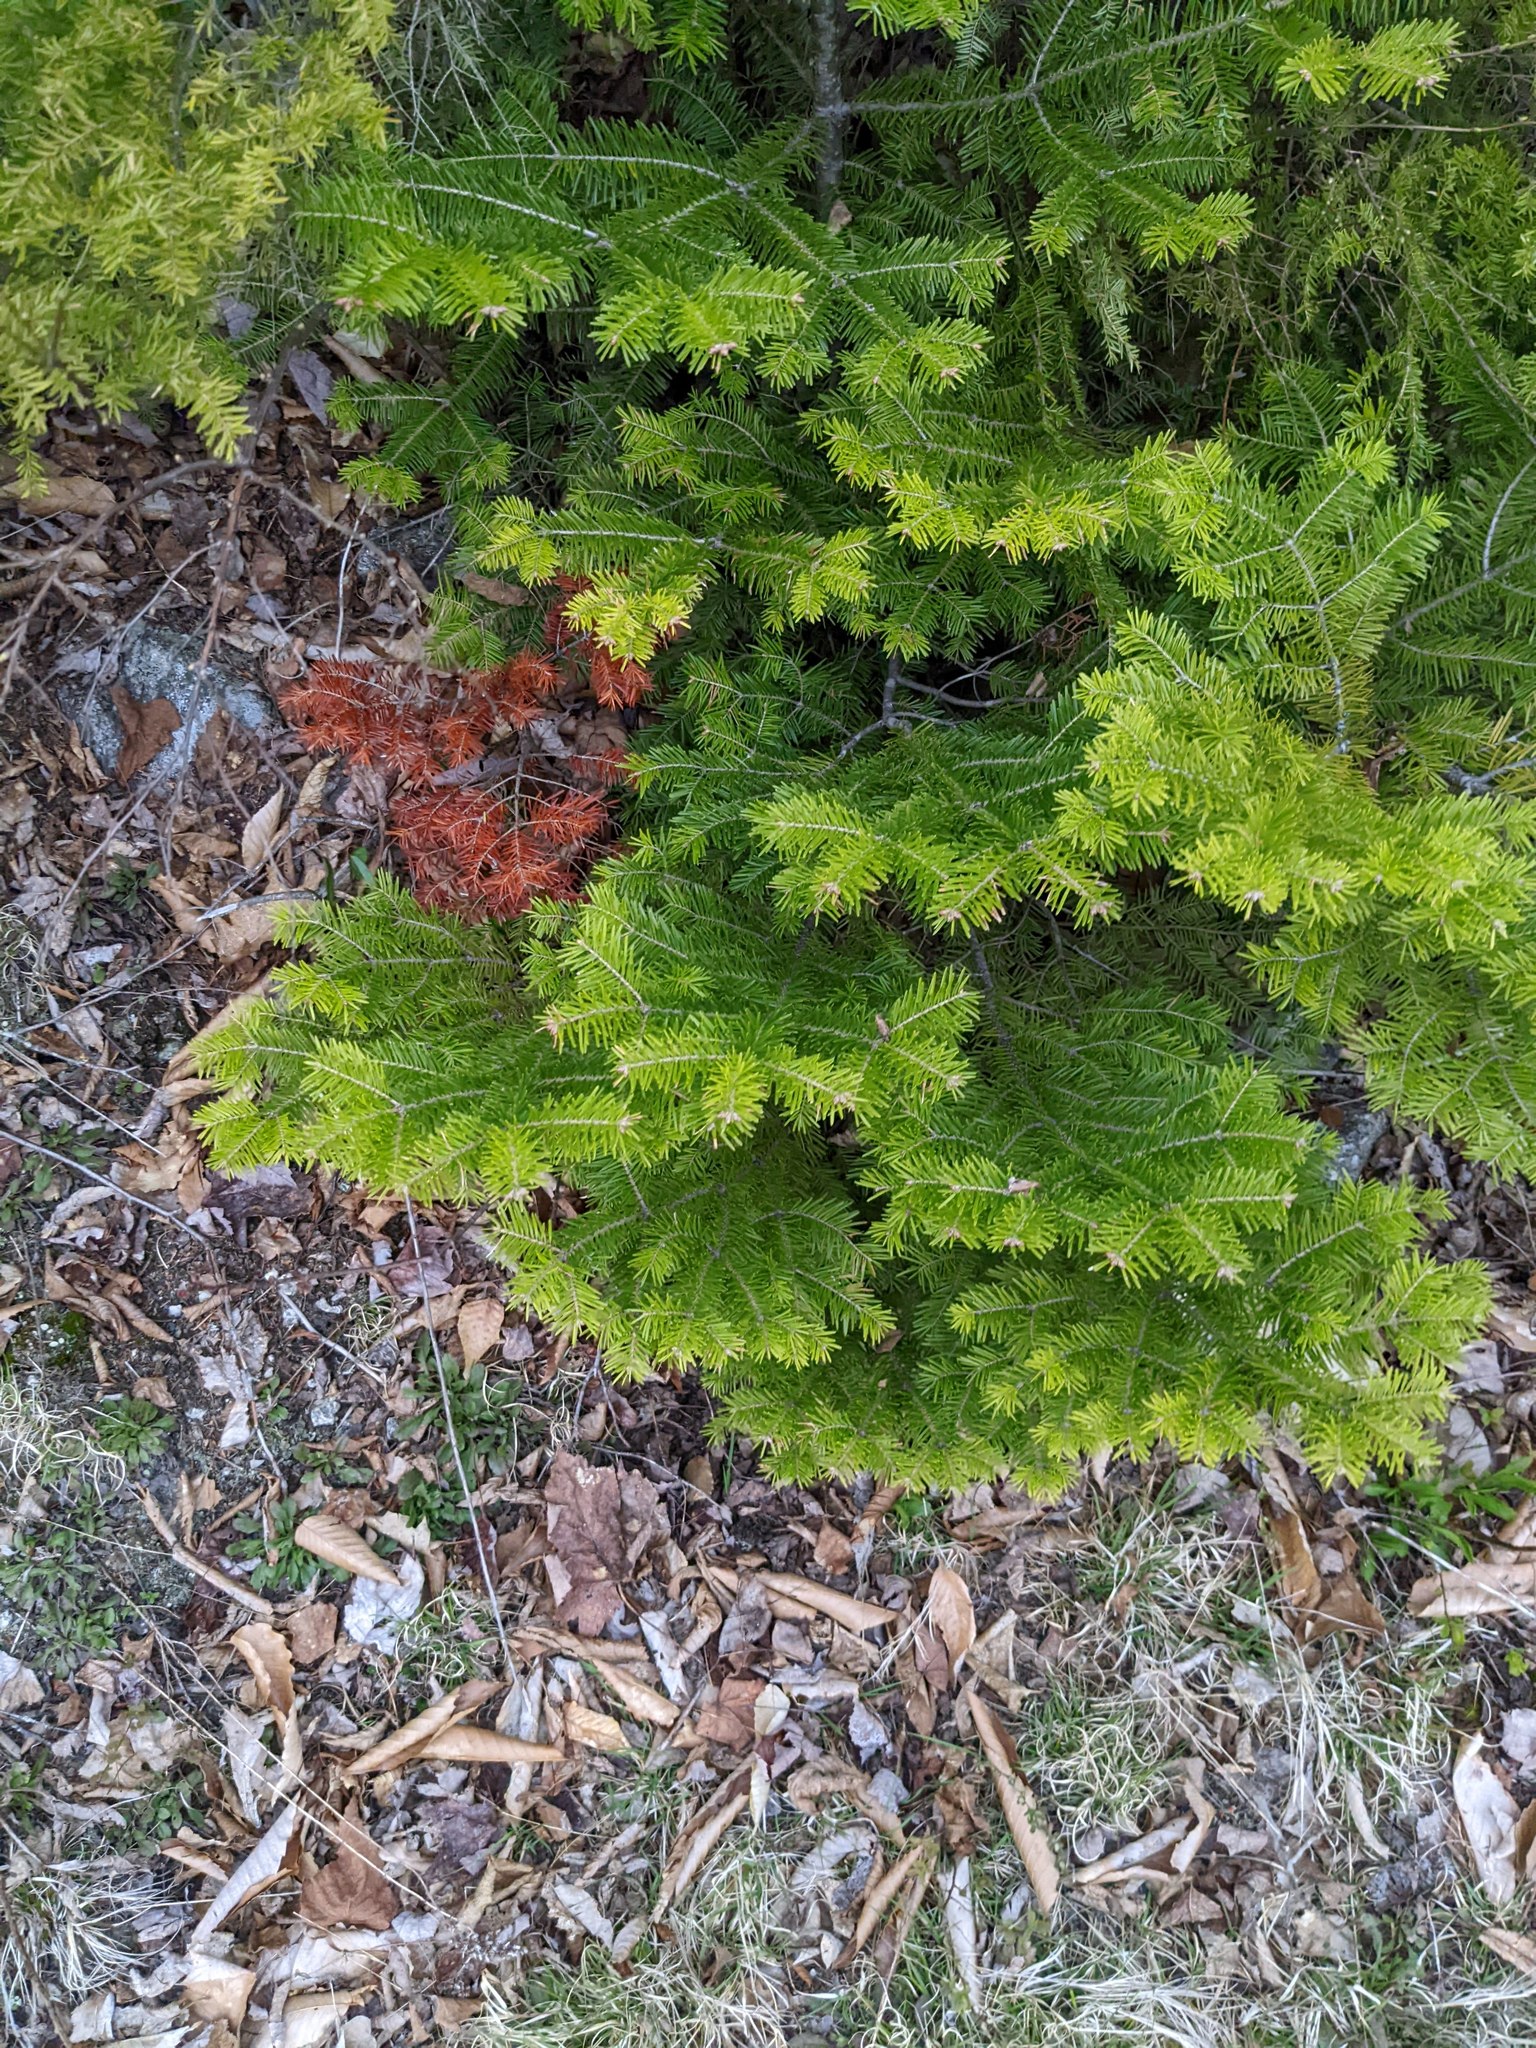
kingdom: Plantae
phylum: Tracheophyta
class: Pinopsida
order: Pinales
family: Pinaceae
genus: Abies
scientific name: Abies balsamea
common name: Balsam fir
